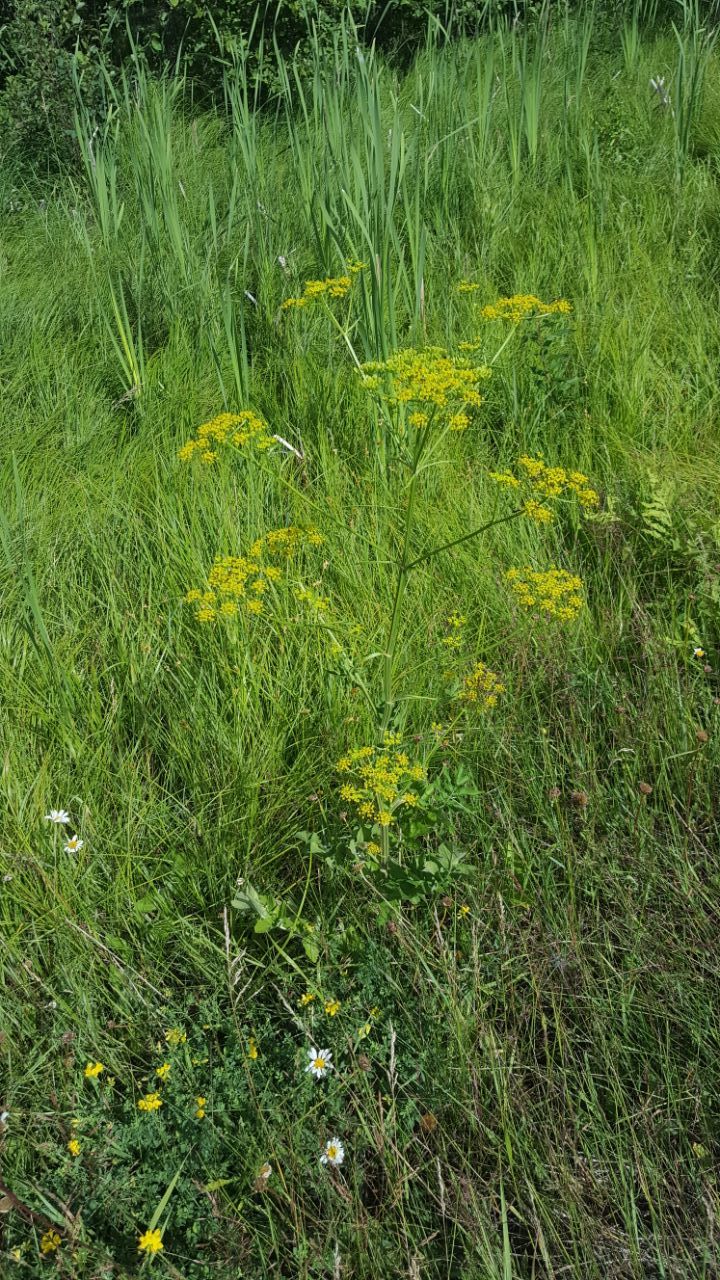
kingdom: Plantae
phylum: Tracheophyta
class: Magnoliopsida
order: Apiales
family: Apiaceae
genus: Pastinaca
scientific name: Pastinaca sativa
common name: Wild parsnip
